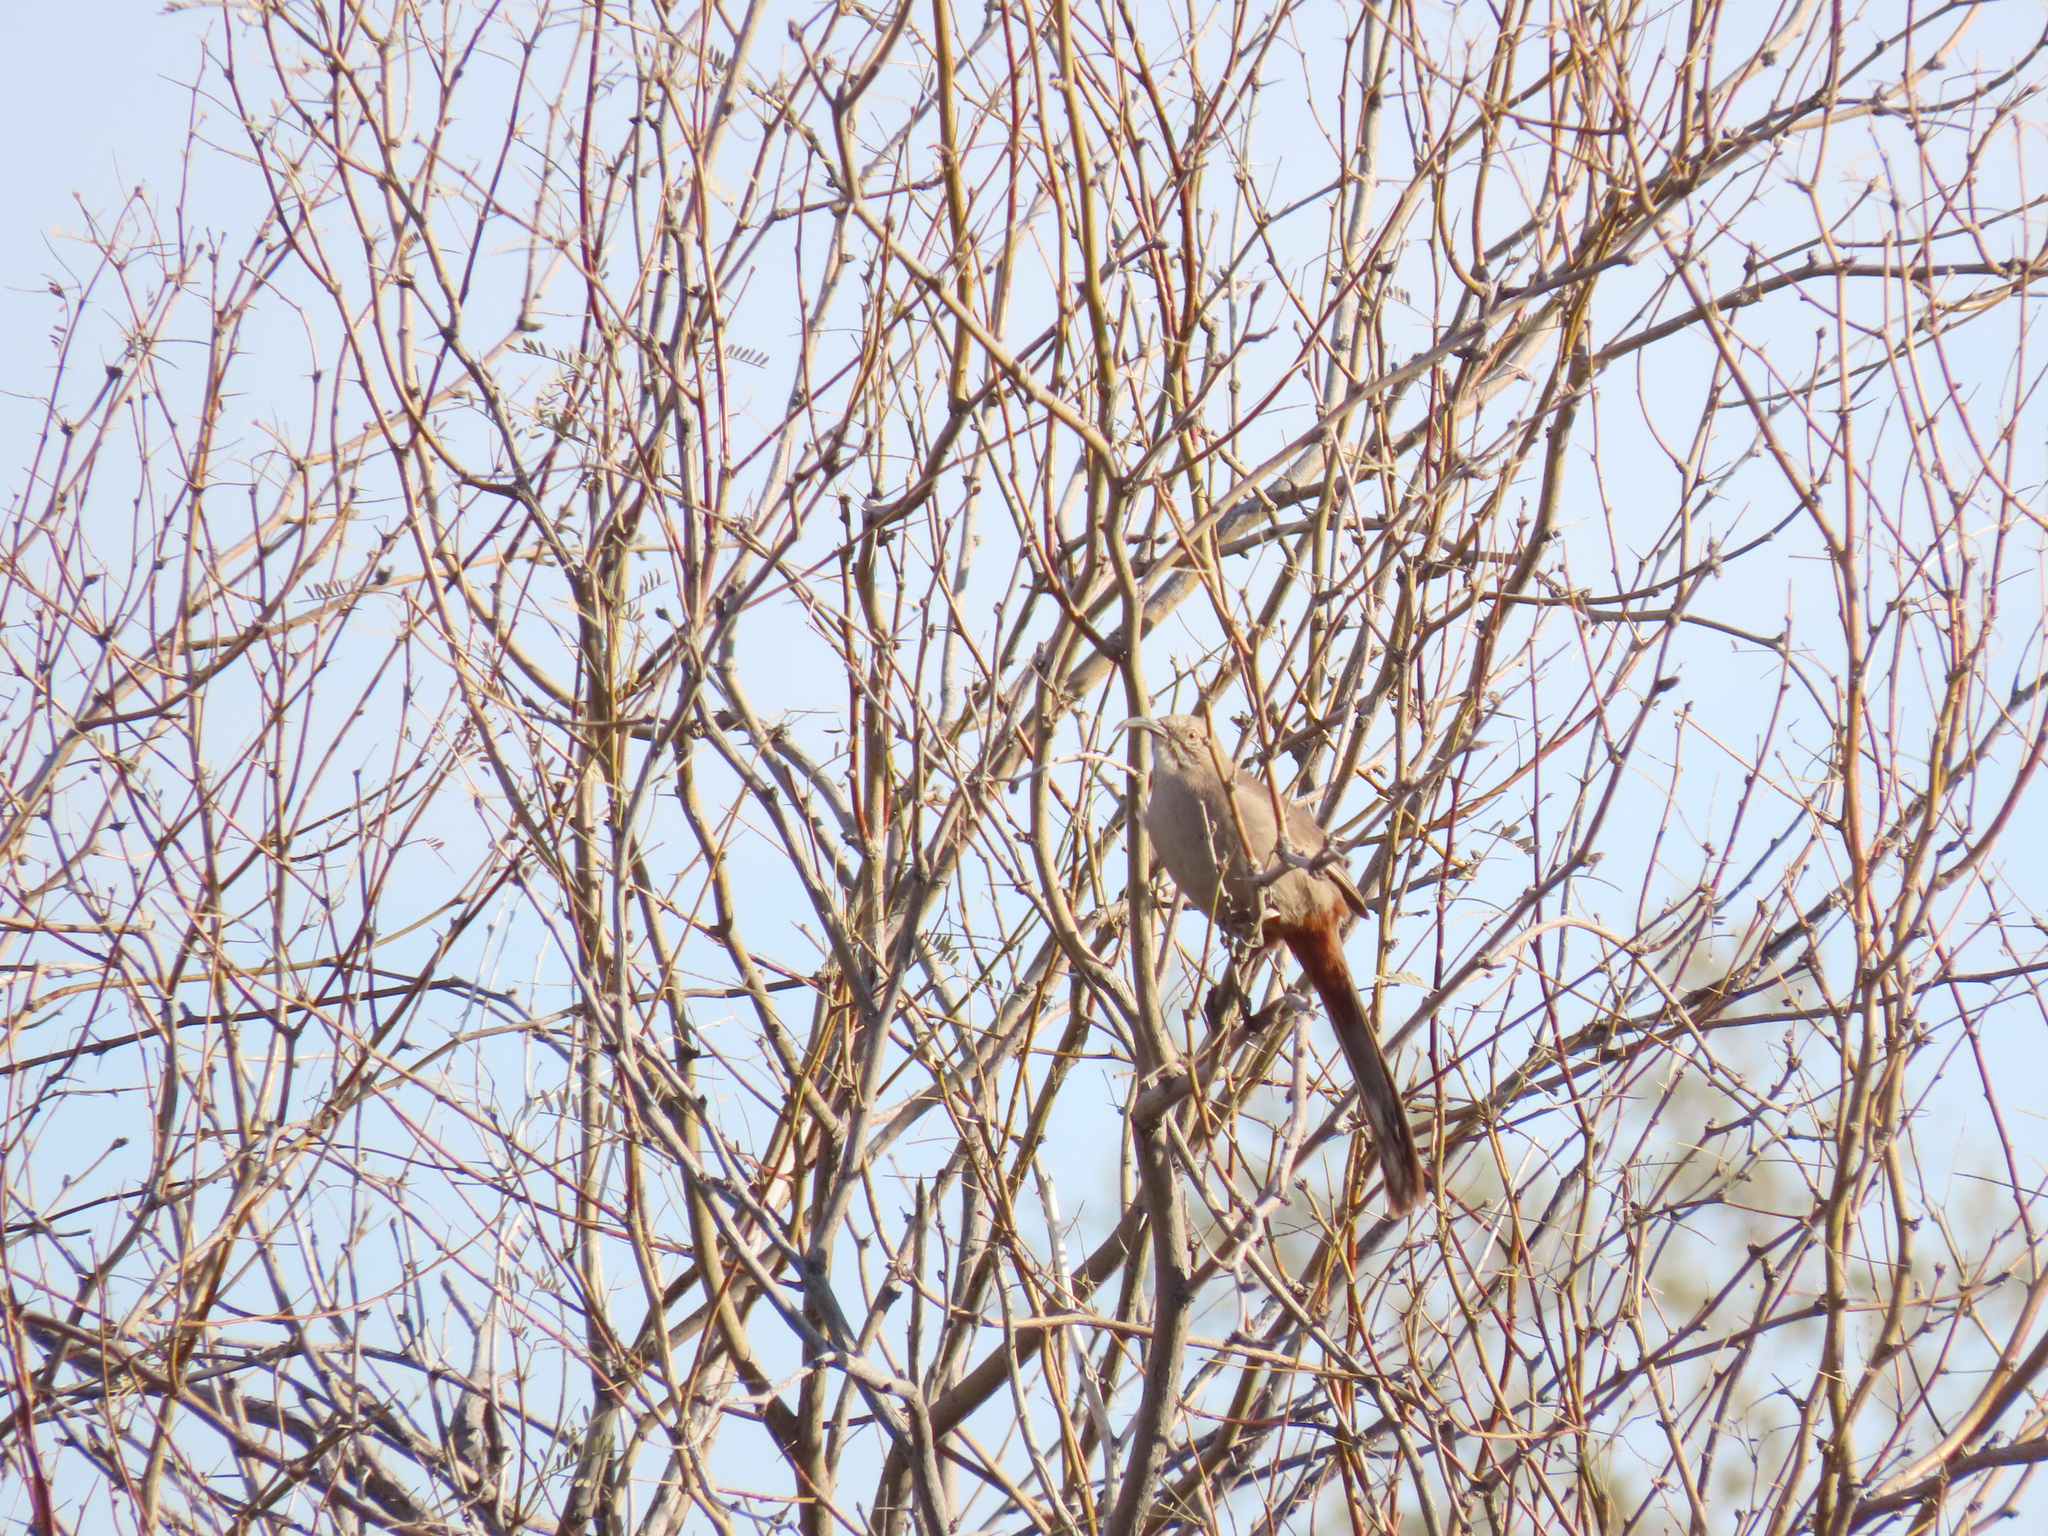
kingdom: Animalia
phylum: Chordata
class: Aves
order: Passeriformes
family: Mimidae
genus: Toxostoma
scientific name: Toxostoma crissale
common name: Crissal thrasher
